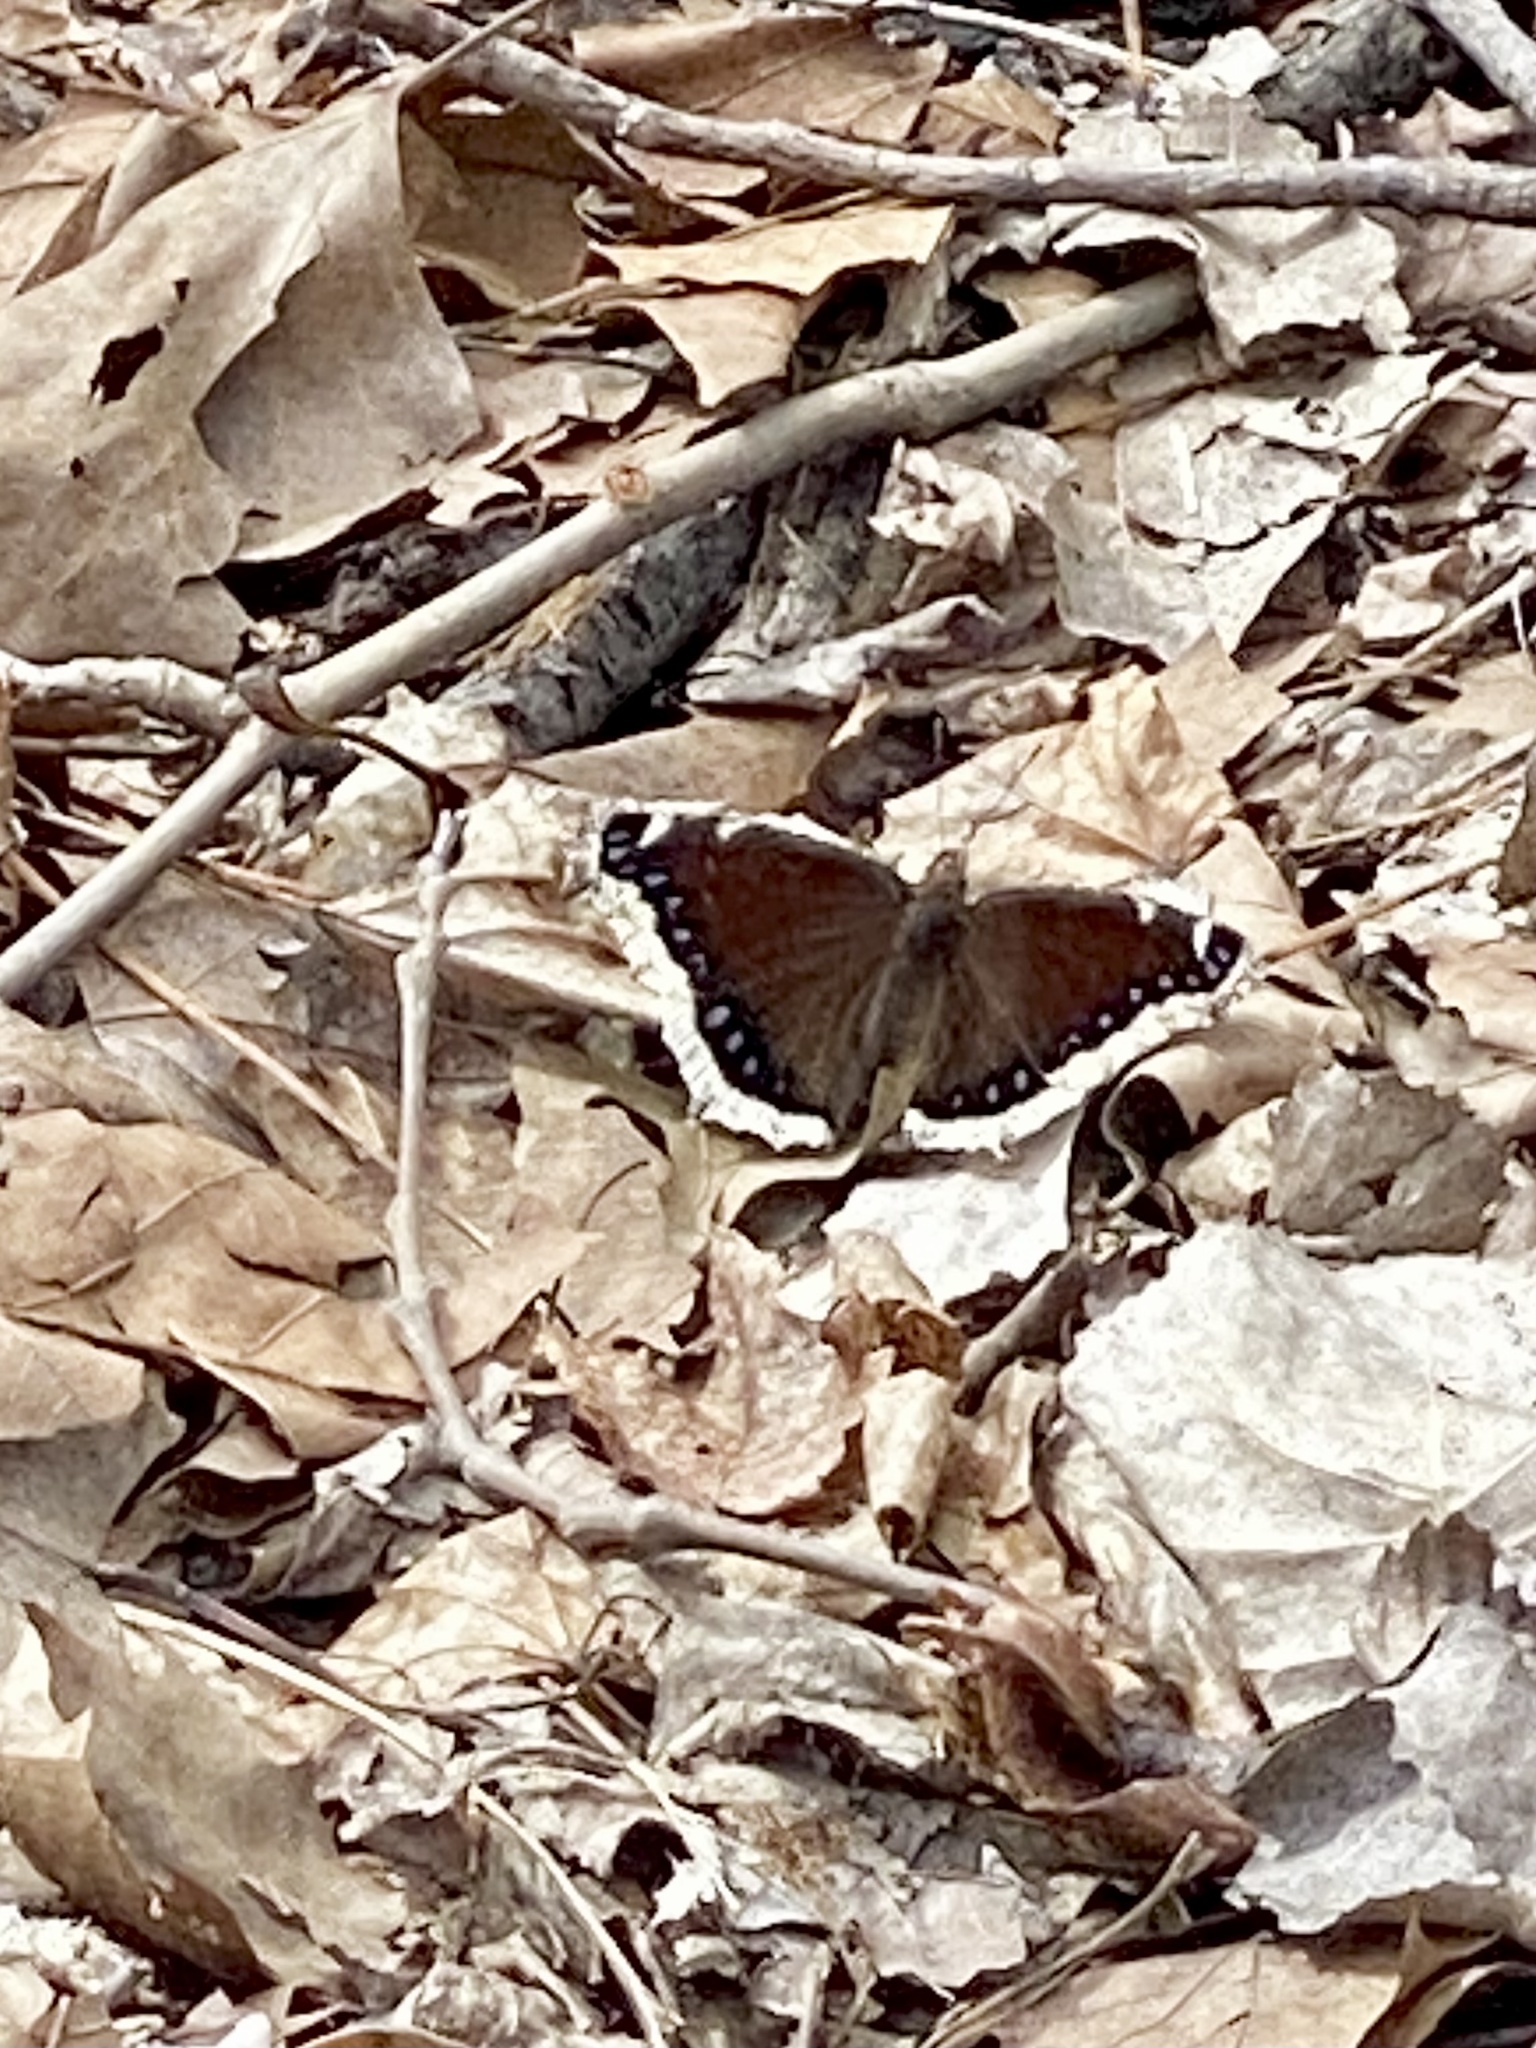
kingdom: Animalia
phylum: Arthropoda
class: Insecta
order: Lepidoptera
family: Nymphalidae
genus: Nymphalis
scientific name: Nymphalis antiopa
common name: Camberwell beauty
